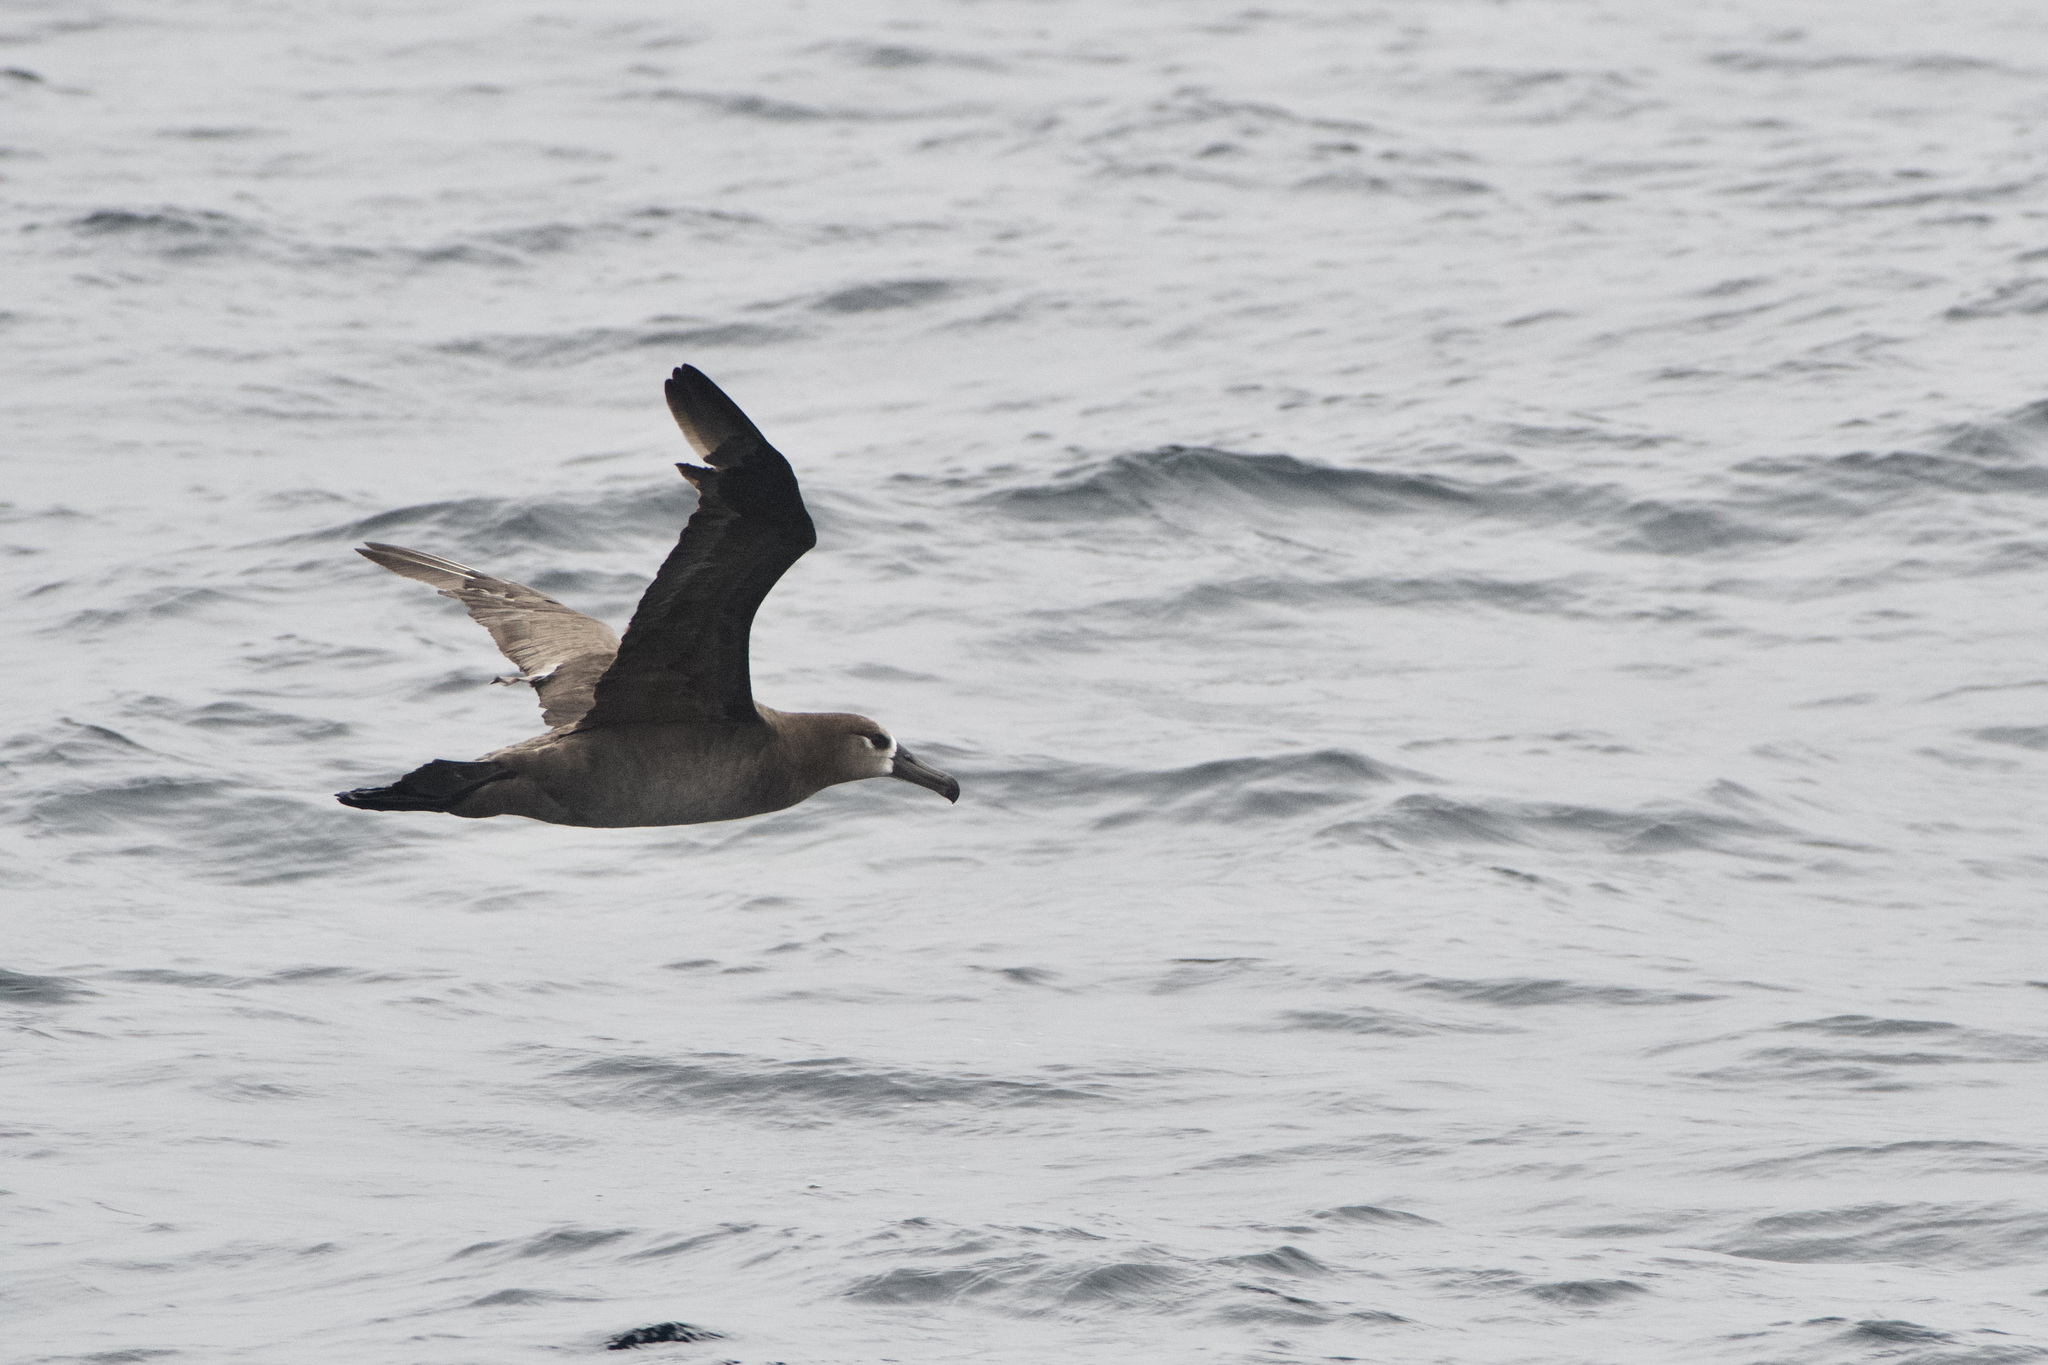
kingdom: Animalia
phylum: Chordata
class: Aves
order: Procellariiformes
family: Diomedeidae
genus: Phoebastria
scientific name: Phoebastria nigripes
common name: Black-footed albatross
